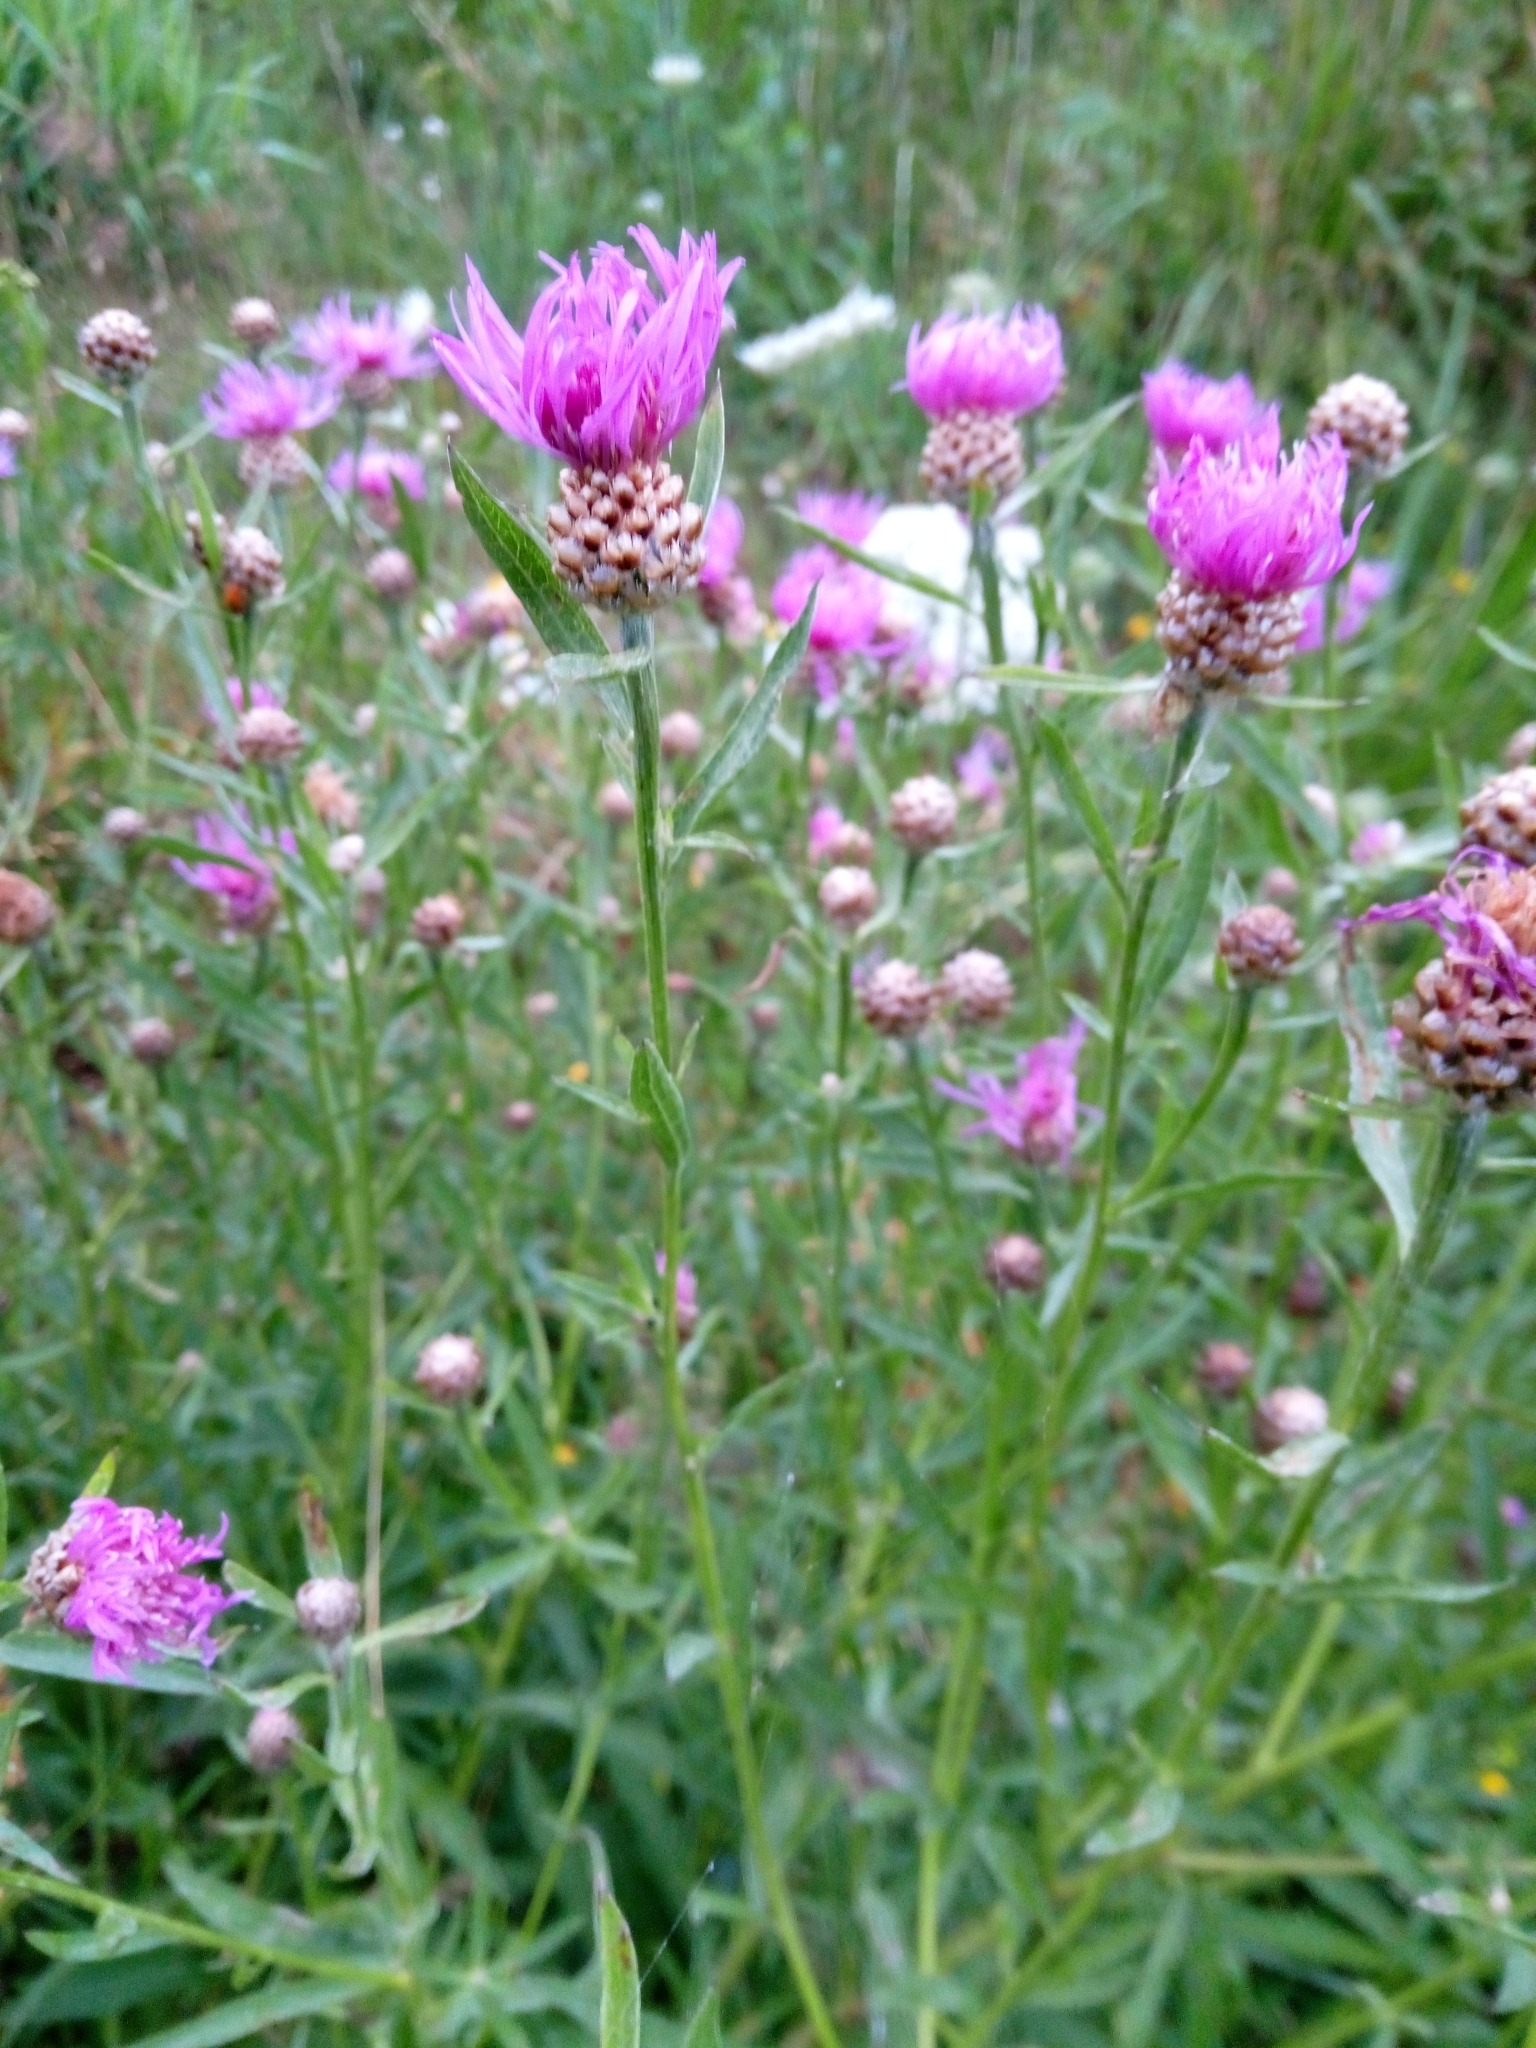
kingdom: Plantae
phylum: Tracheophyta
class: Magnoliopsida
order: Asterales
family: Asteraceae
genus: Centaurea
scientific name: Centaurea jacea
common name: Brown knapweed
